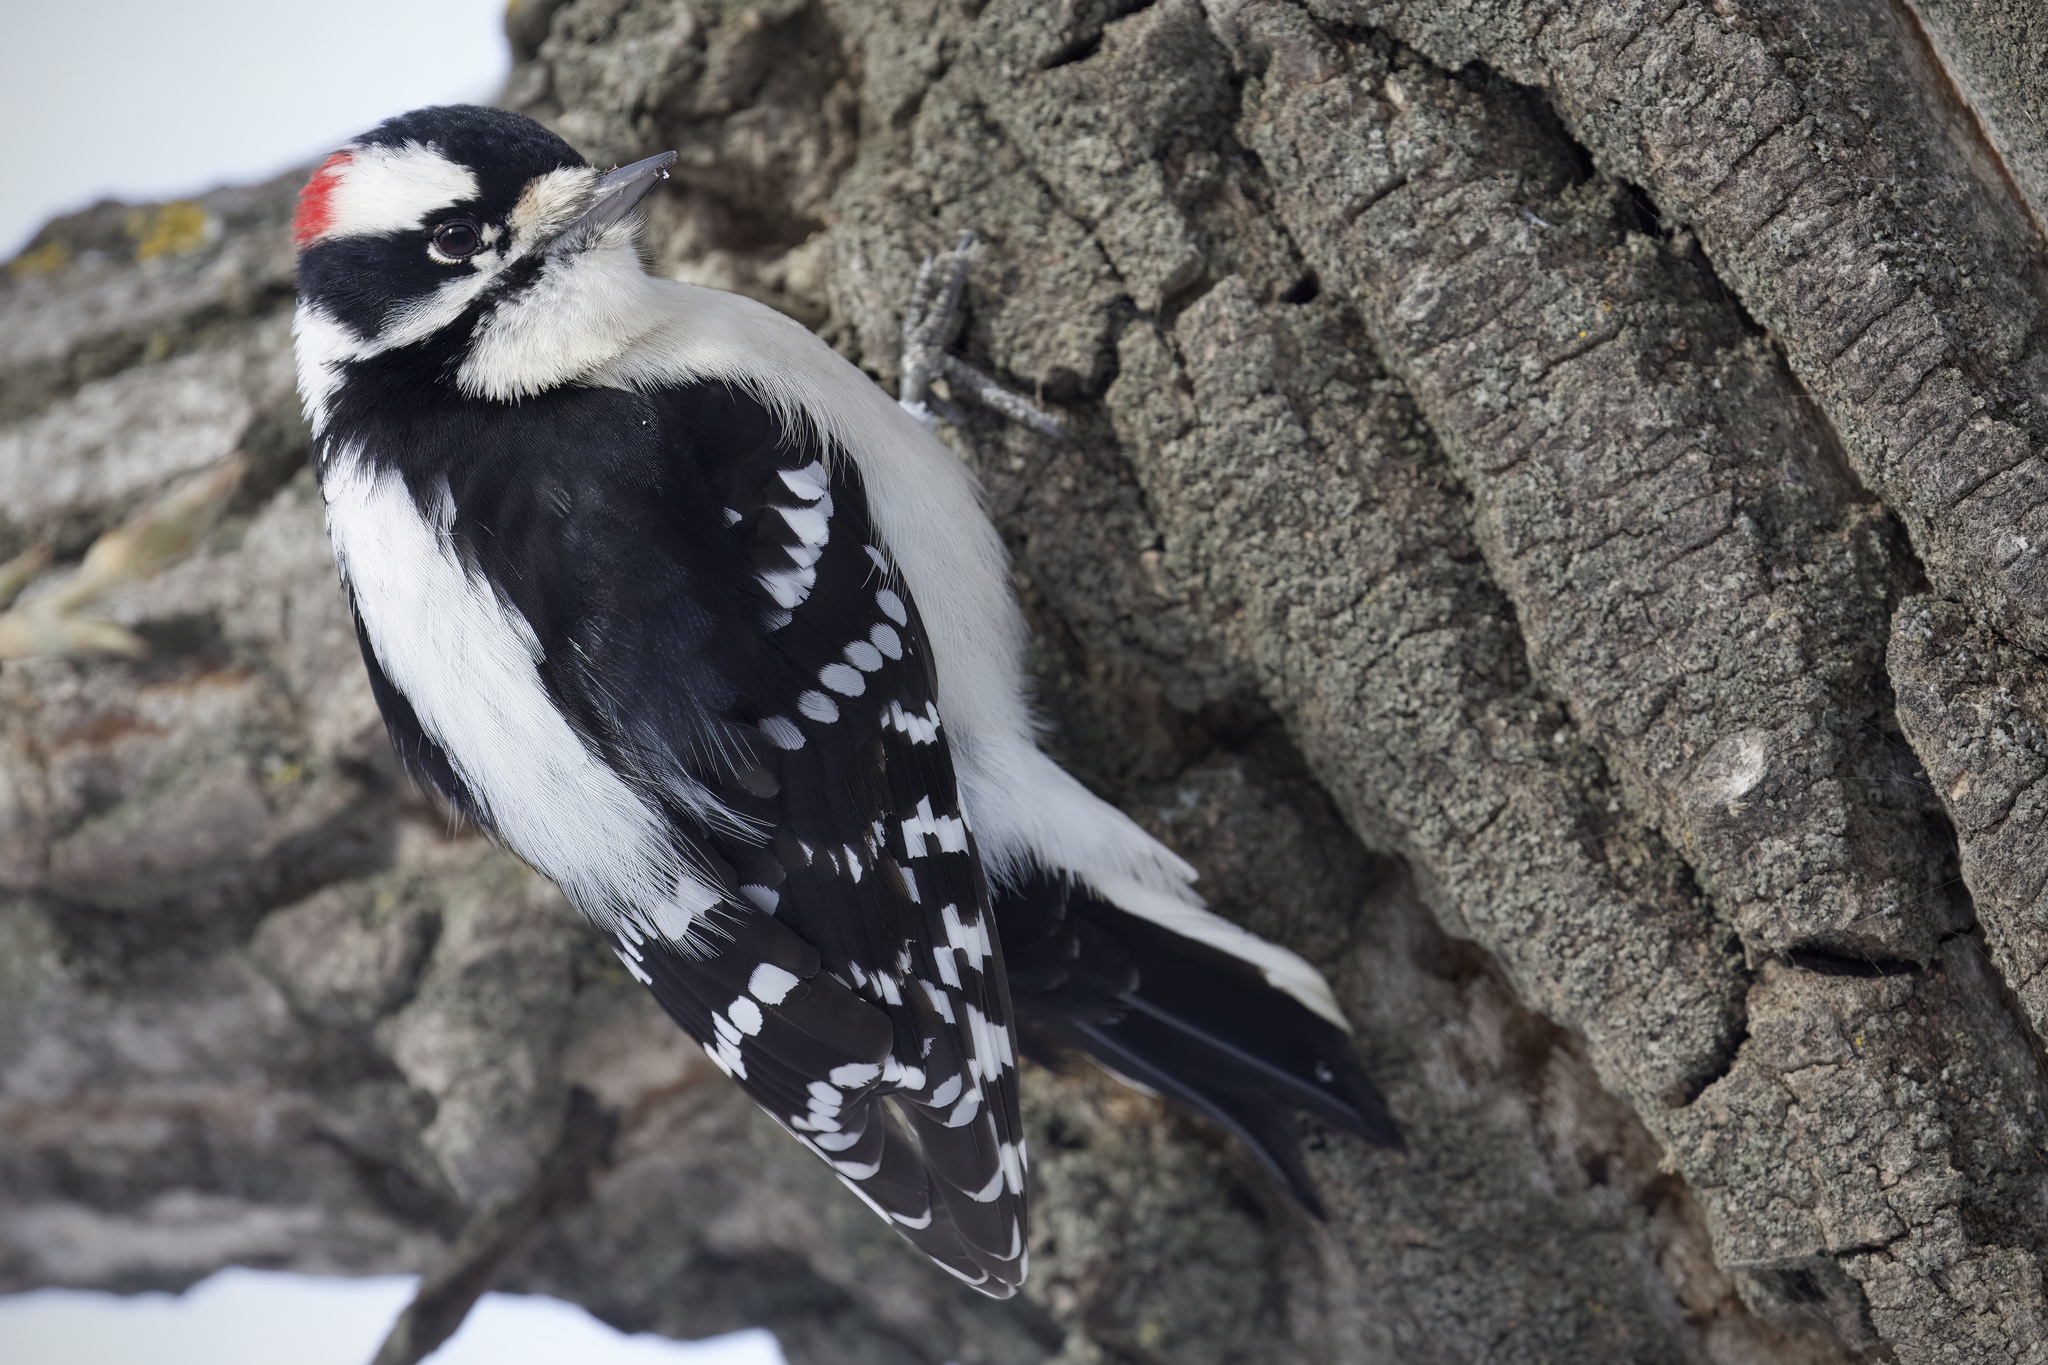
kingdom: Animalia
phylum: Chordata
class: Aves
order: Piciformes
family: Picidae
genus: Dryobates
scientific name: Dryobates pubescens
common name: Downy woodpecker
